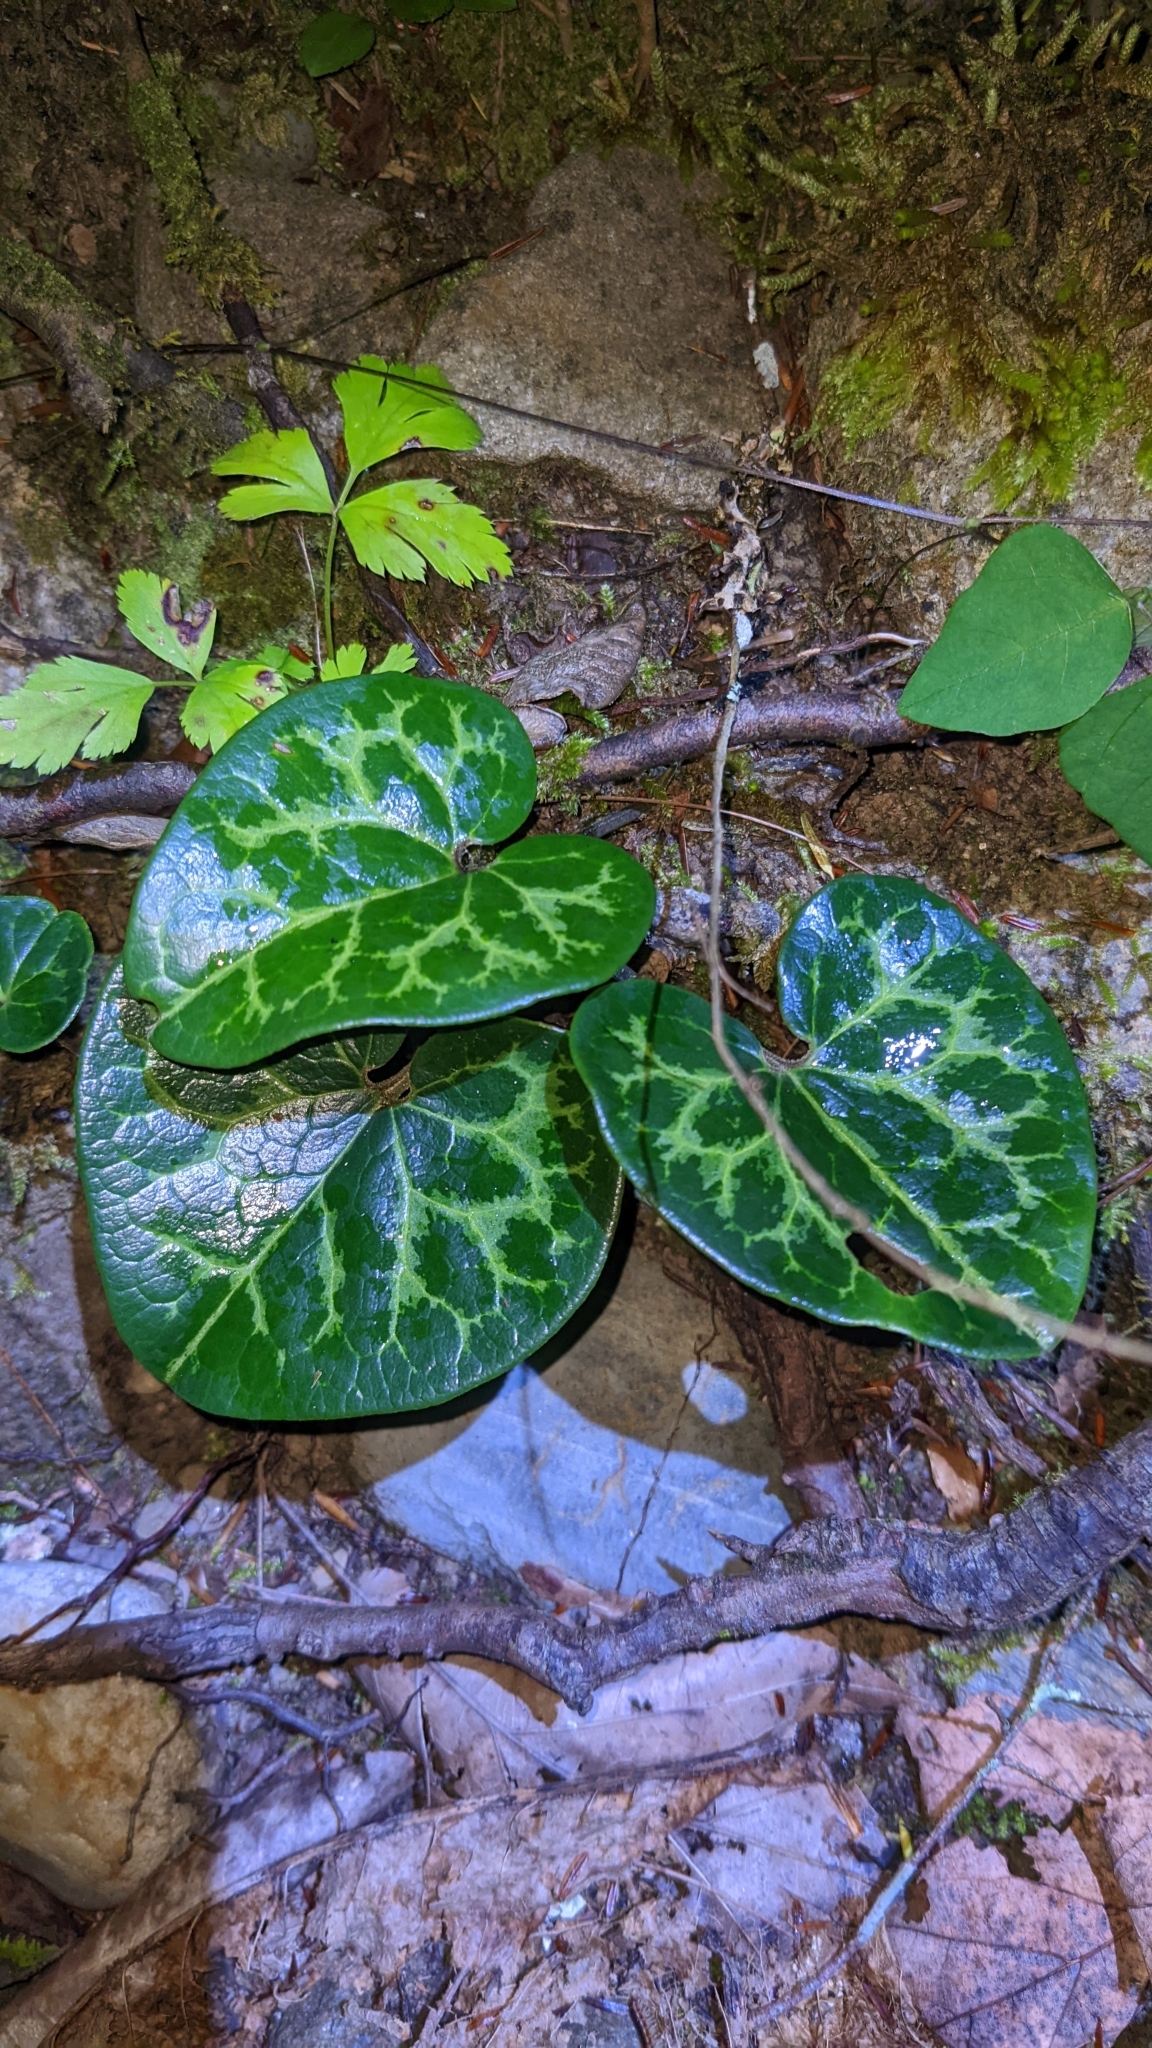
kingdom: Plantae
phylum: Tracheophyta
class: Magnoliopsida
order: Piperales
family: Aristolochiaceae
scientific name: Aristolochiaceae
